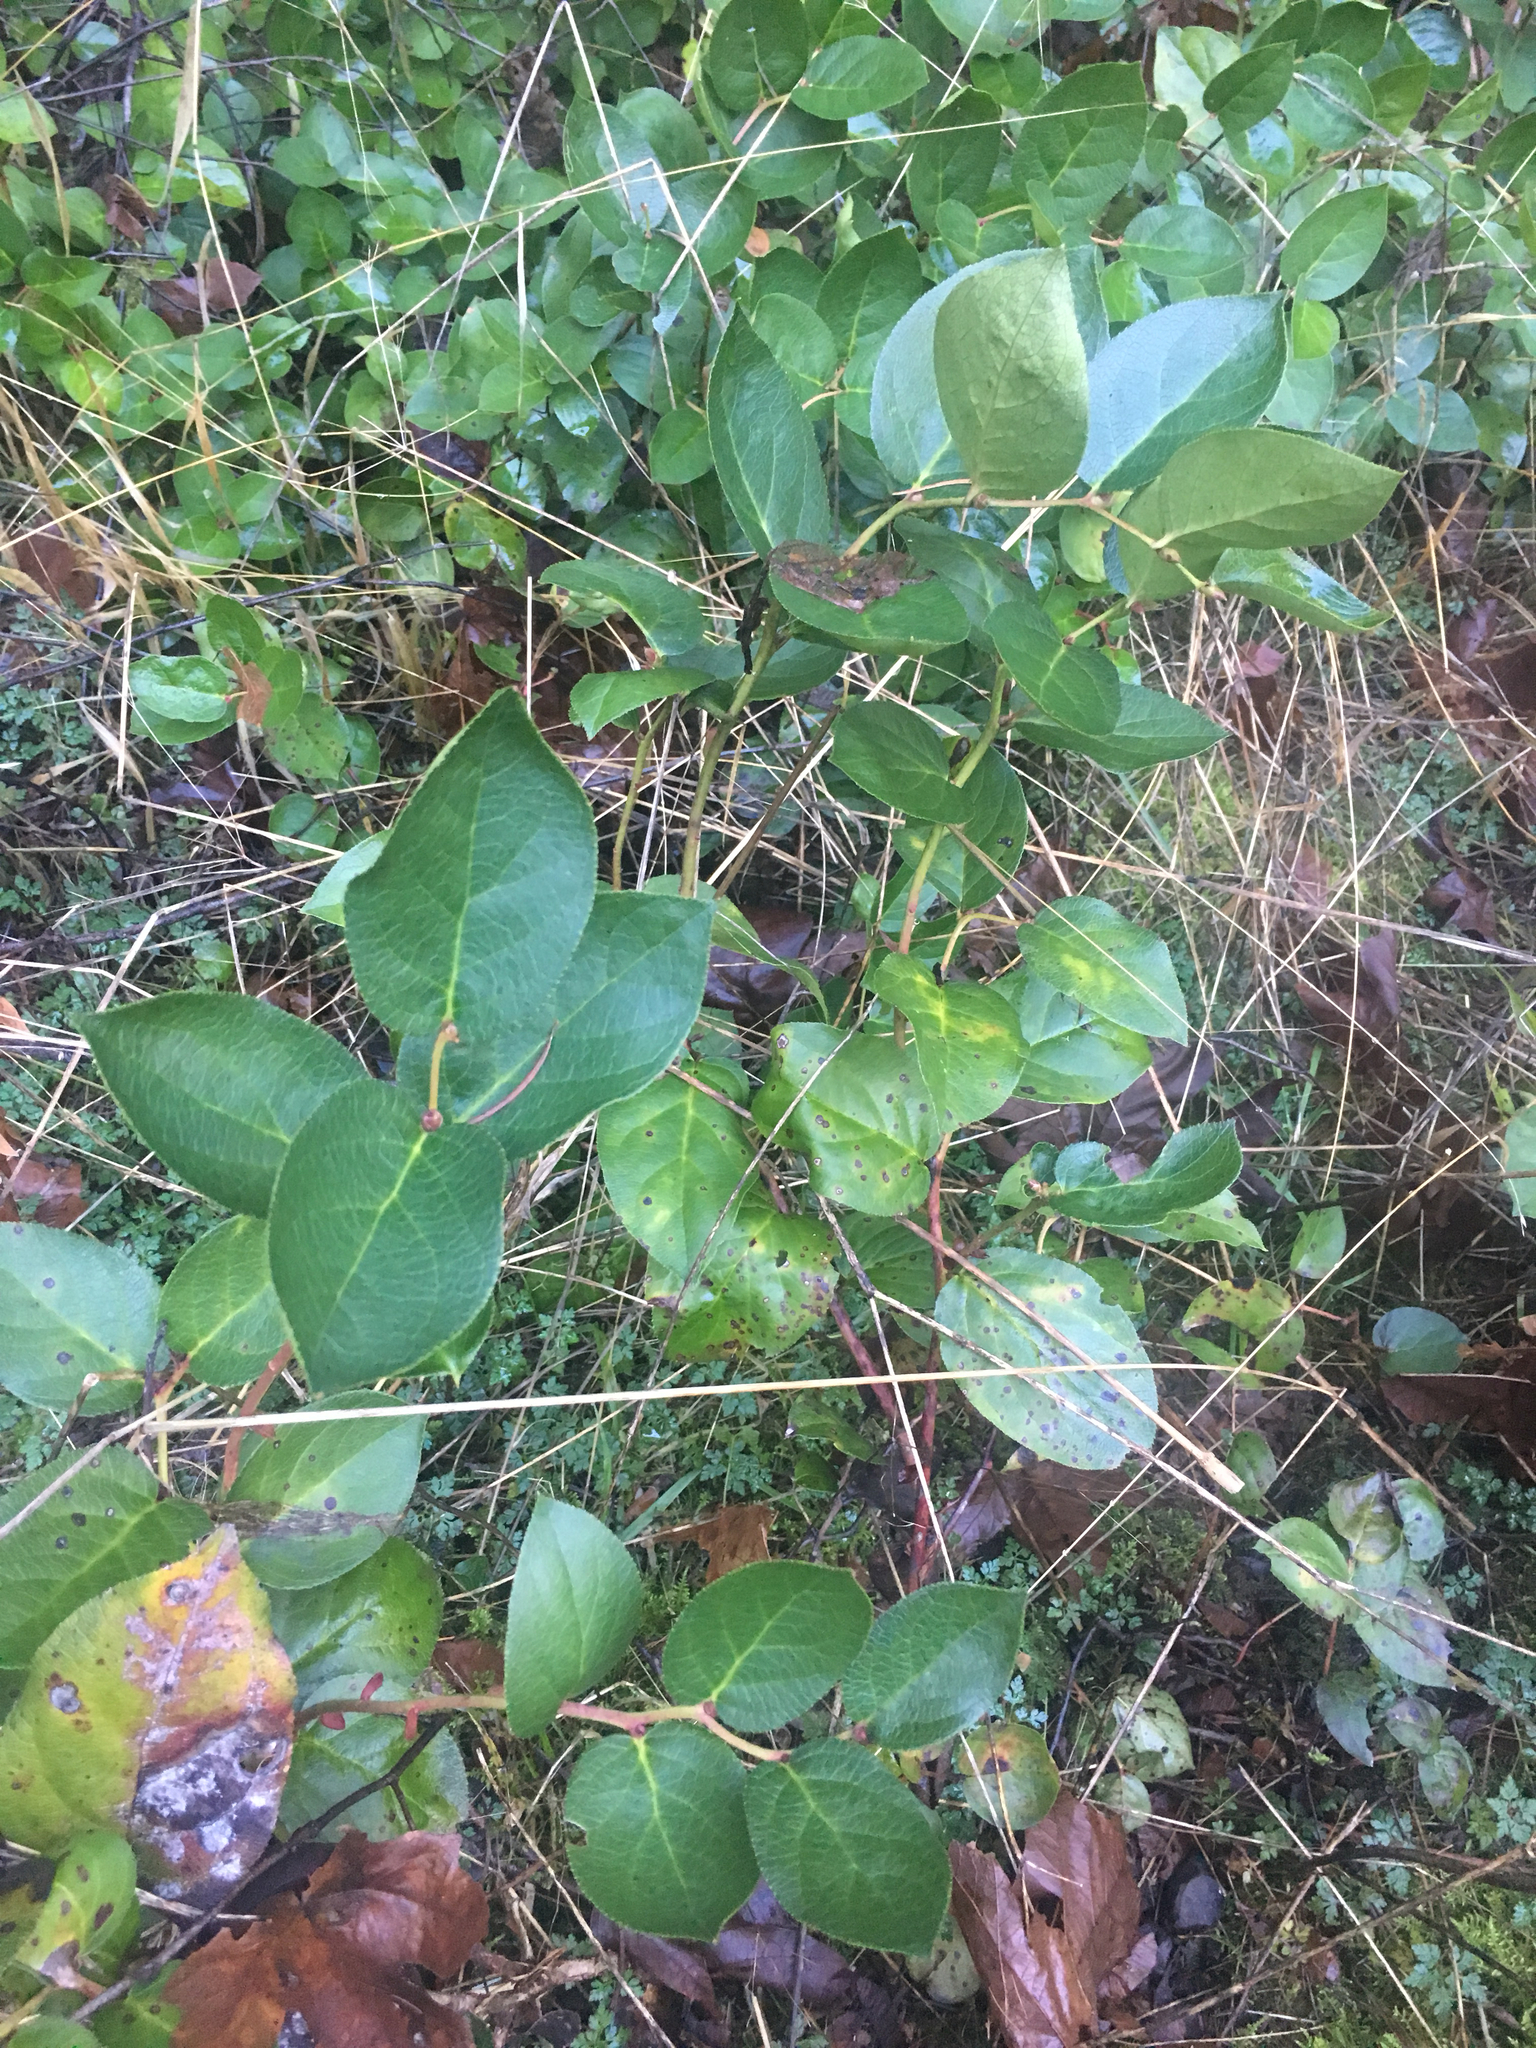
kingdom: Plantae
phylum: Tracheophyta
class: Magnoliopsida
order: Ericales
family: Ericaceae
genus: Gaultheria
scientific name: Gaultheria shallon
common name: Shallon
